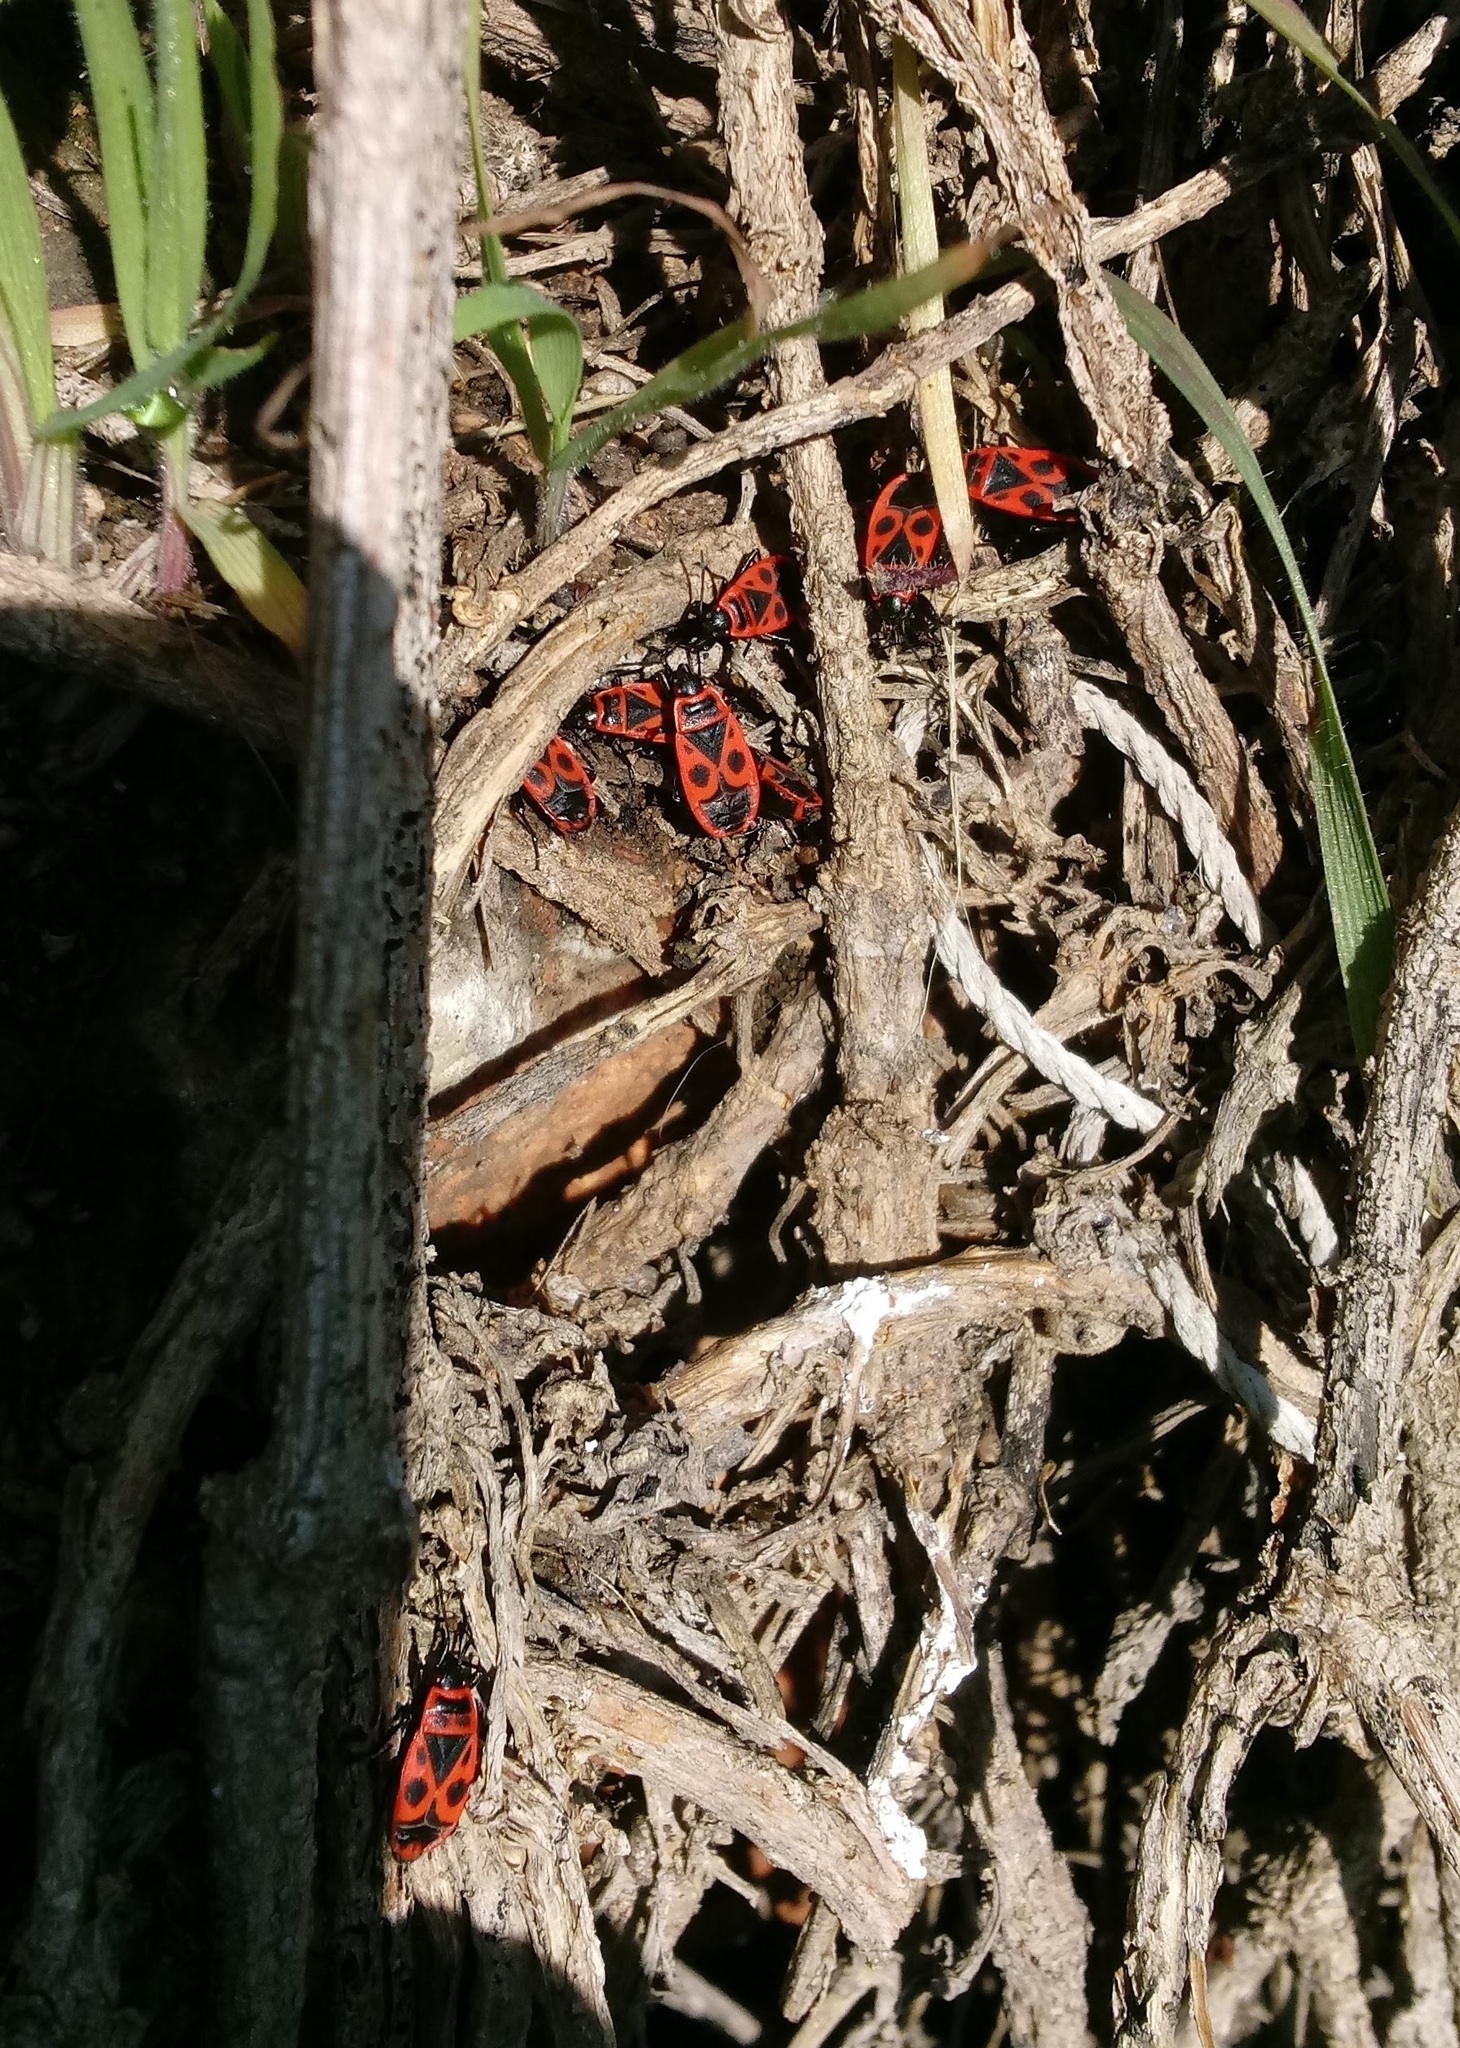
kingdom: Animalia
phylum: Arthropoda
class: Insecta
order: Hemiptera
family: Pyrrhocoridae
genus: Pyrrhocoris
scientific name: Pyrrhocoris apterus
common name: Firebug
